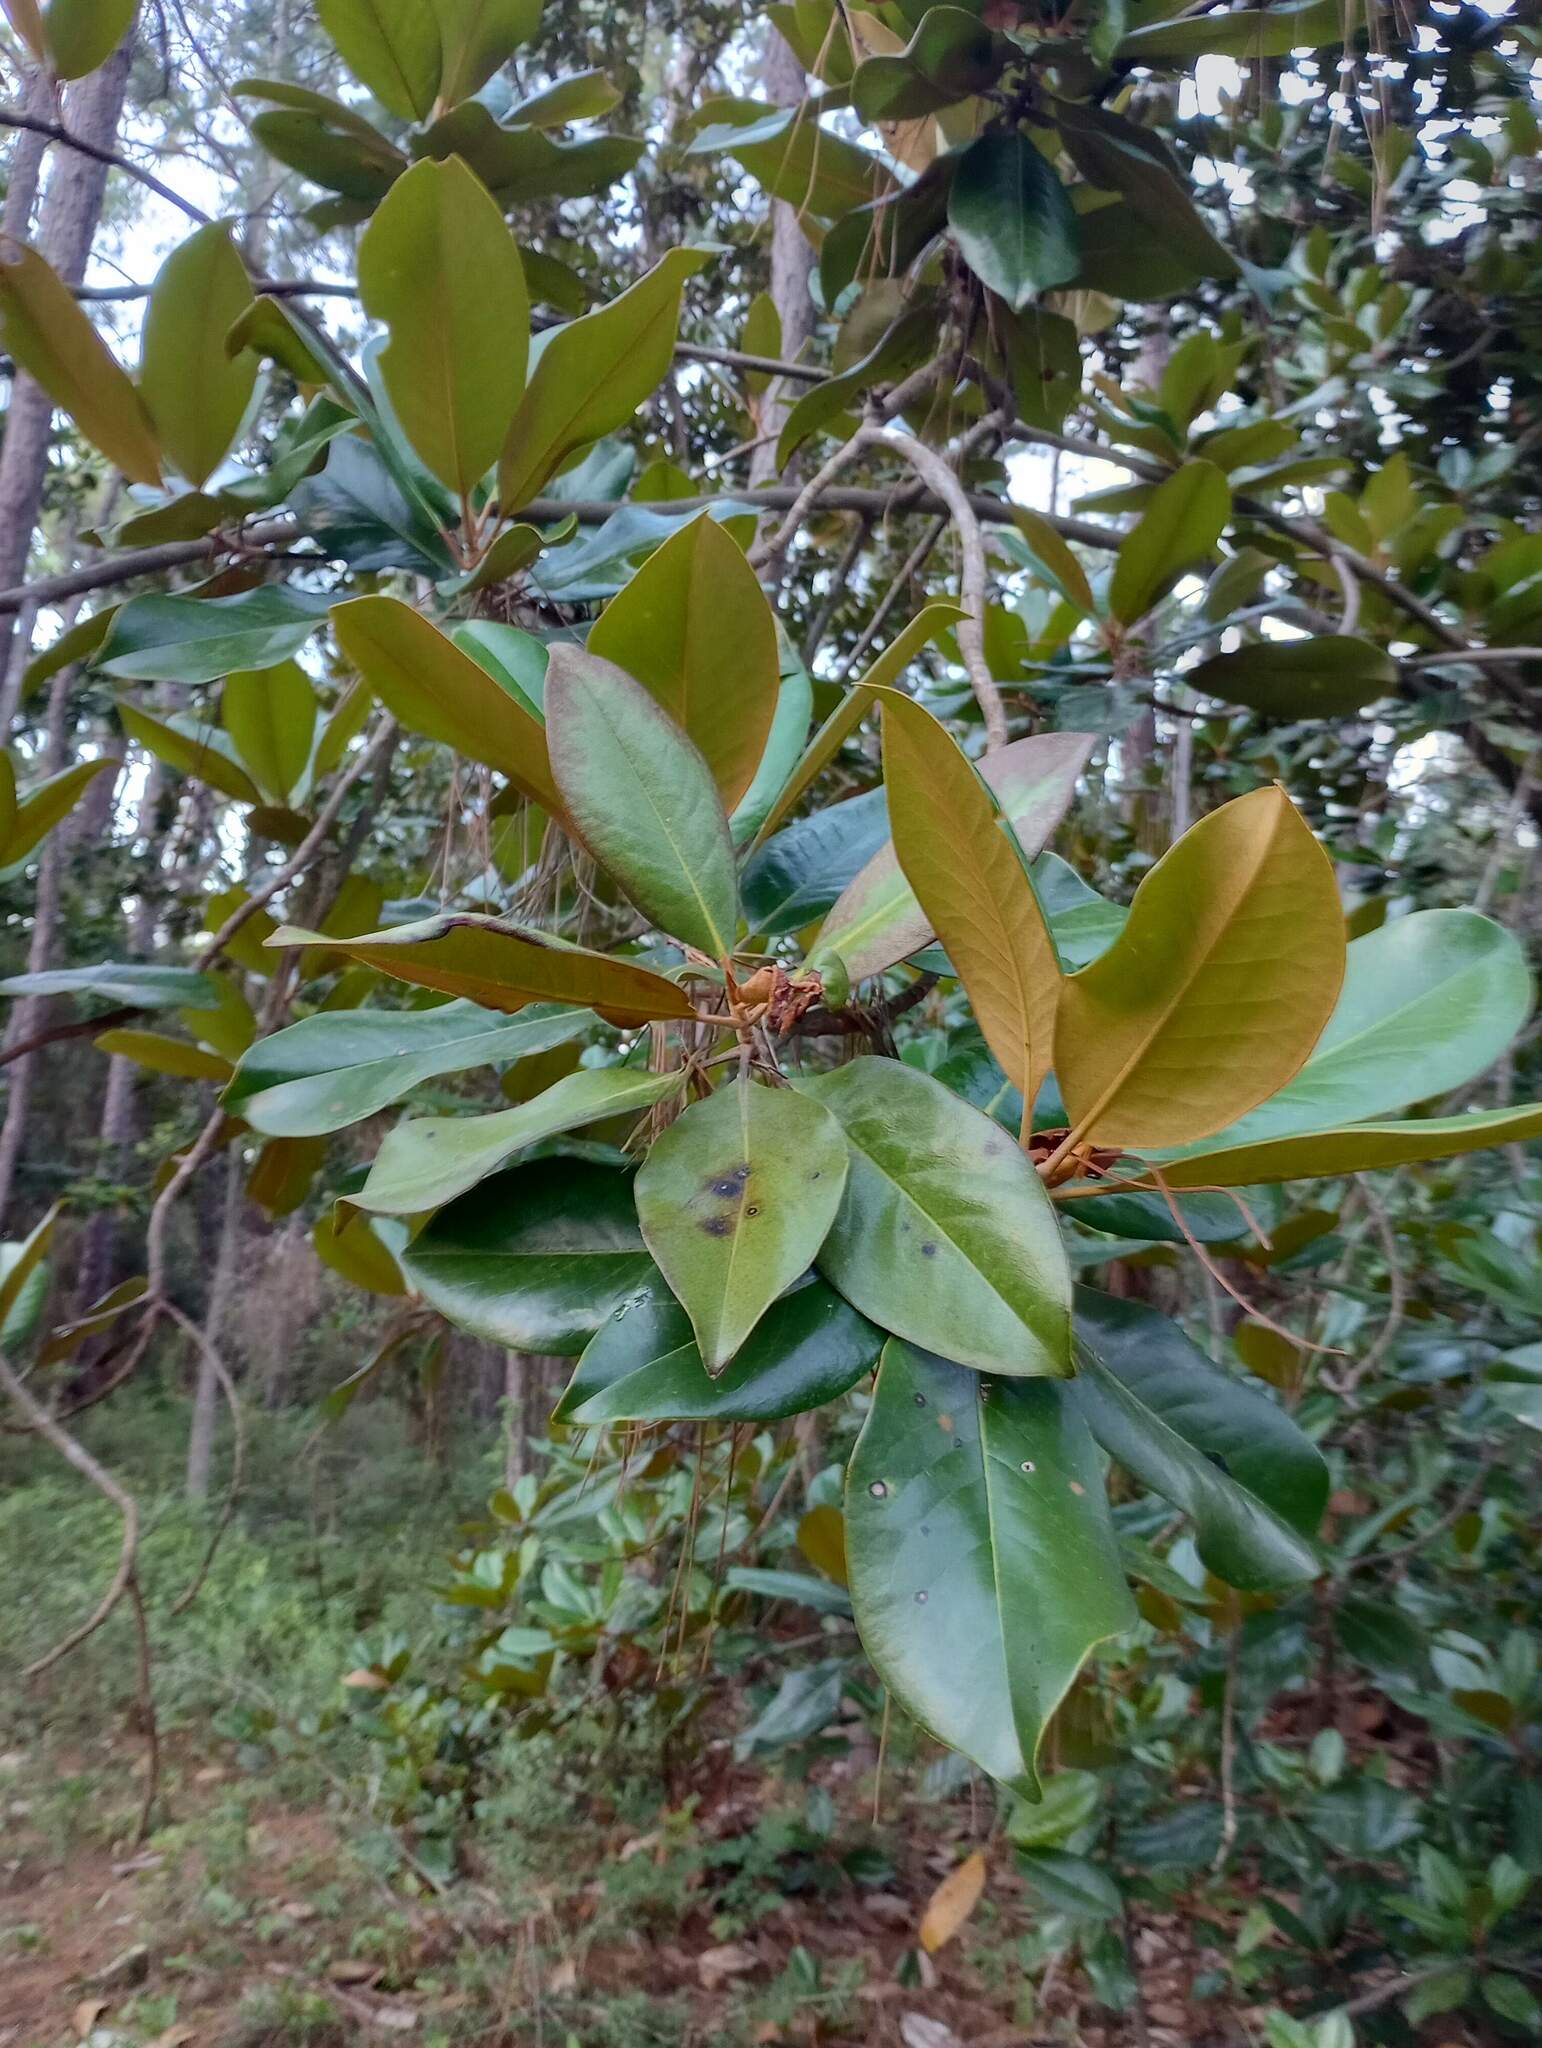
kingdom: Plantae
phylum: Tracheophyta
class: Magnoliopsida
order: Magnoliales
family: Magnoliaceae
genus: Magnolia
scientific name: Magnolia grandiflora
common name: Southern magnolia
